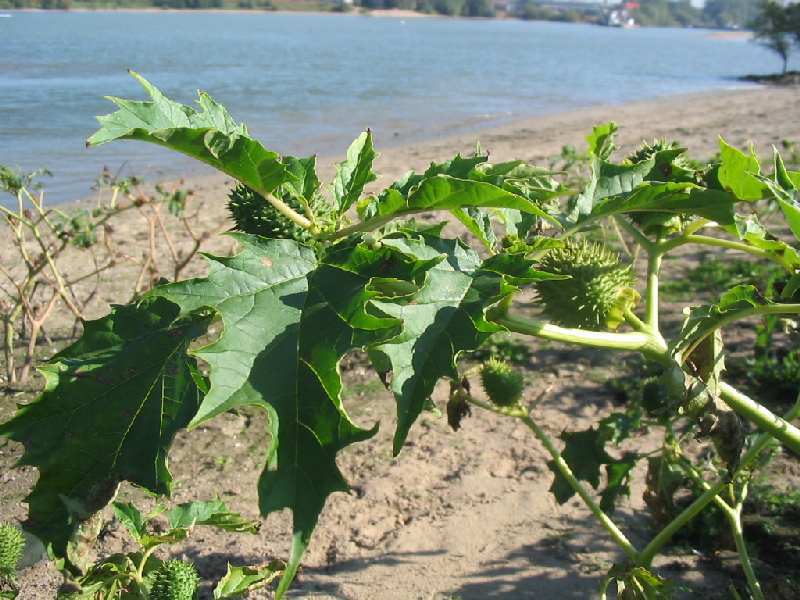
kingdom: Plantae
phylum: Tracheophyta
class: Magnoliopsida
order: Solanales
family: Solanaceae
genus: Datura
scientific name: Datura stramonium
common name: Thorn-apple
